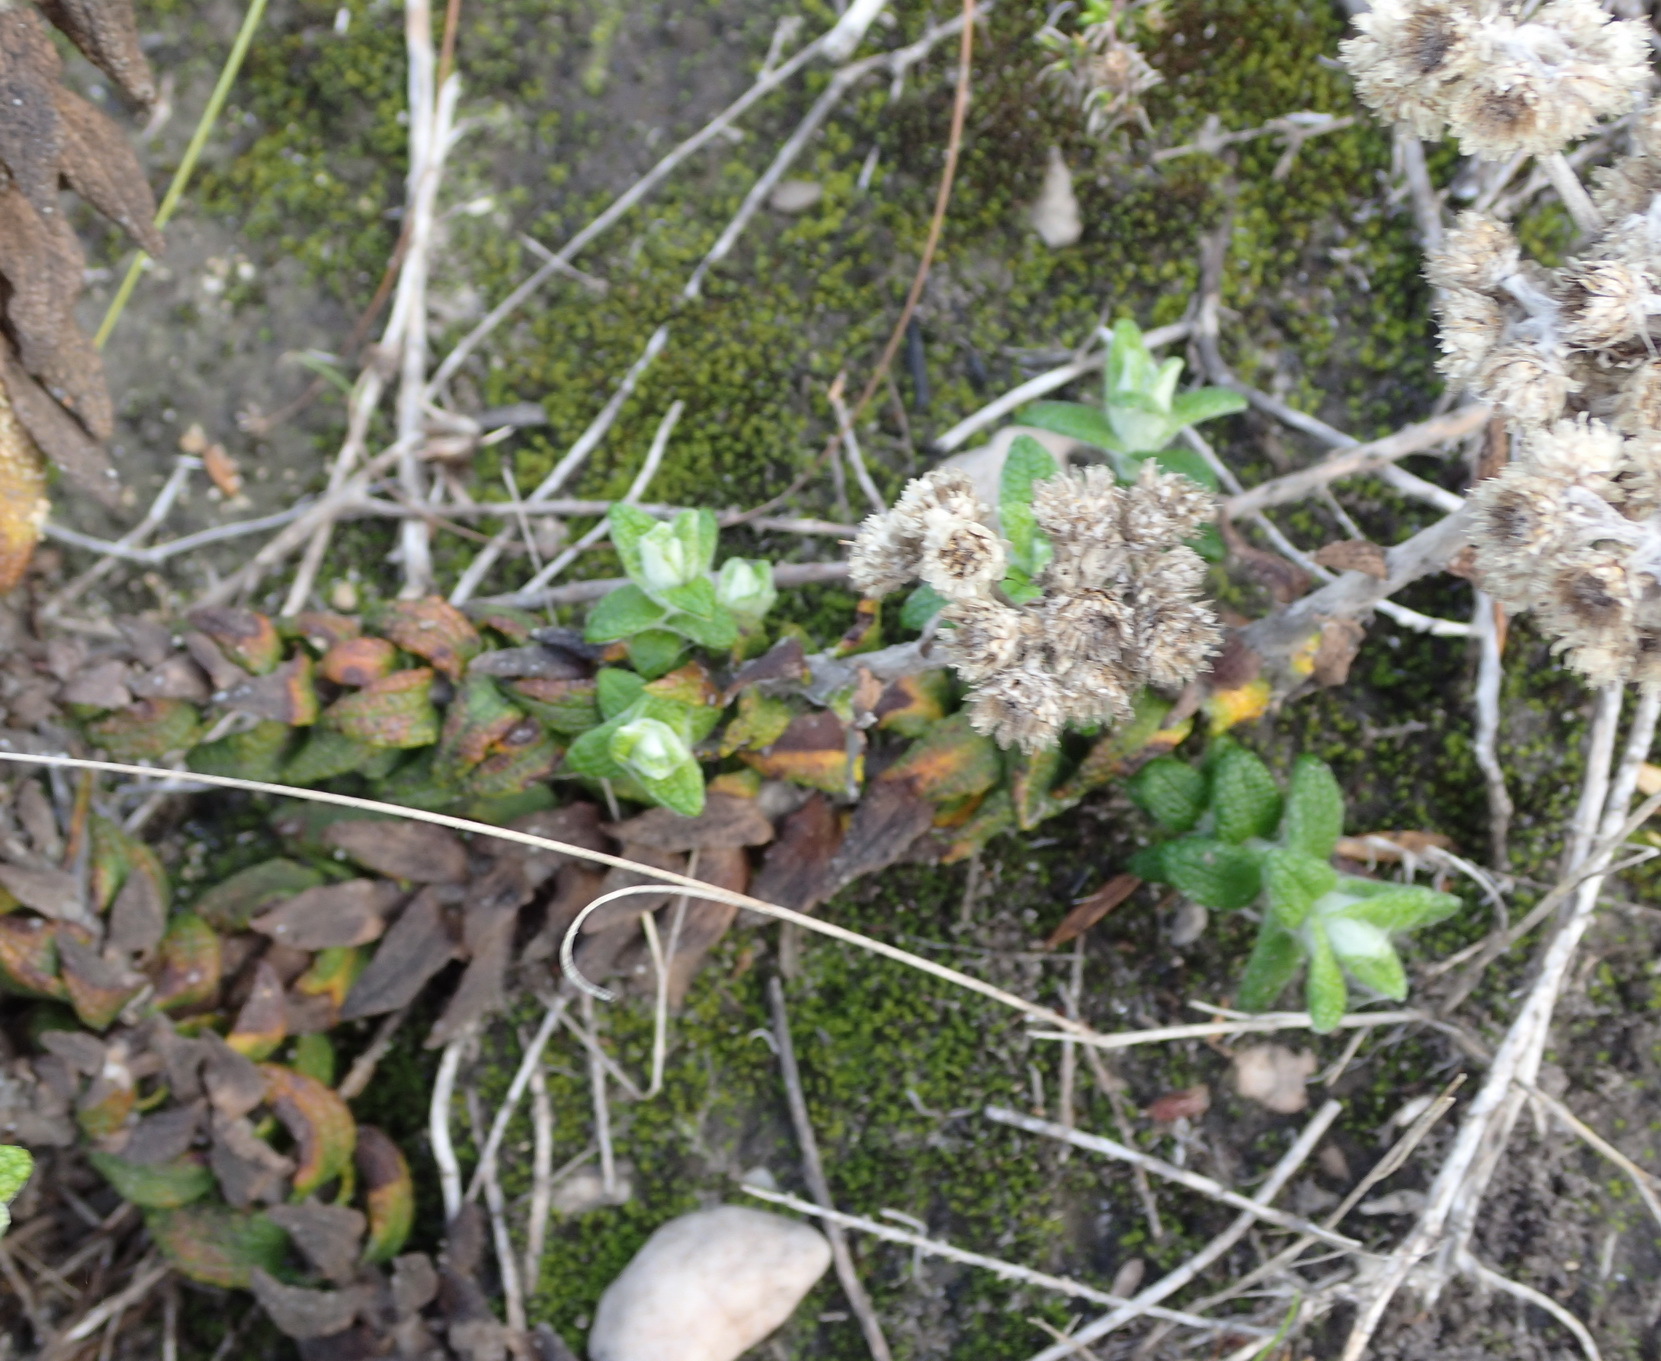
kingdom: Plantae
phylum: Tracheophyta
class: Magnoliopsida
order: Asterales
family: Asteraceae
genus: Helichrysum
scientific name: Helichrysum felinum
